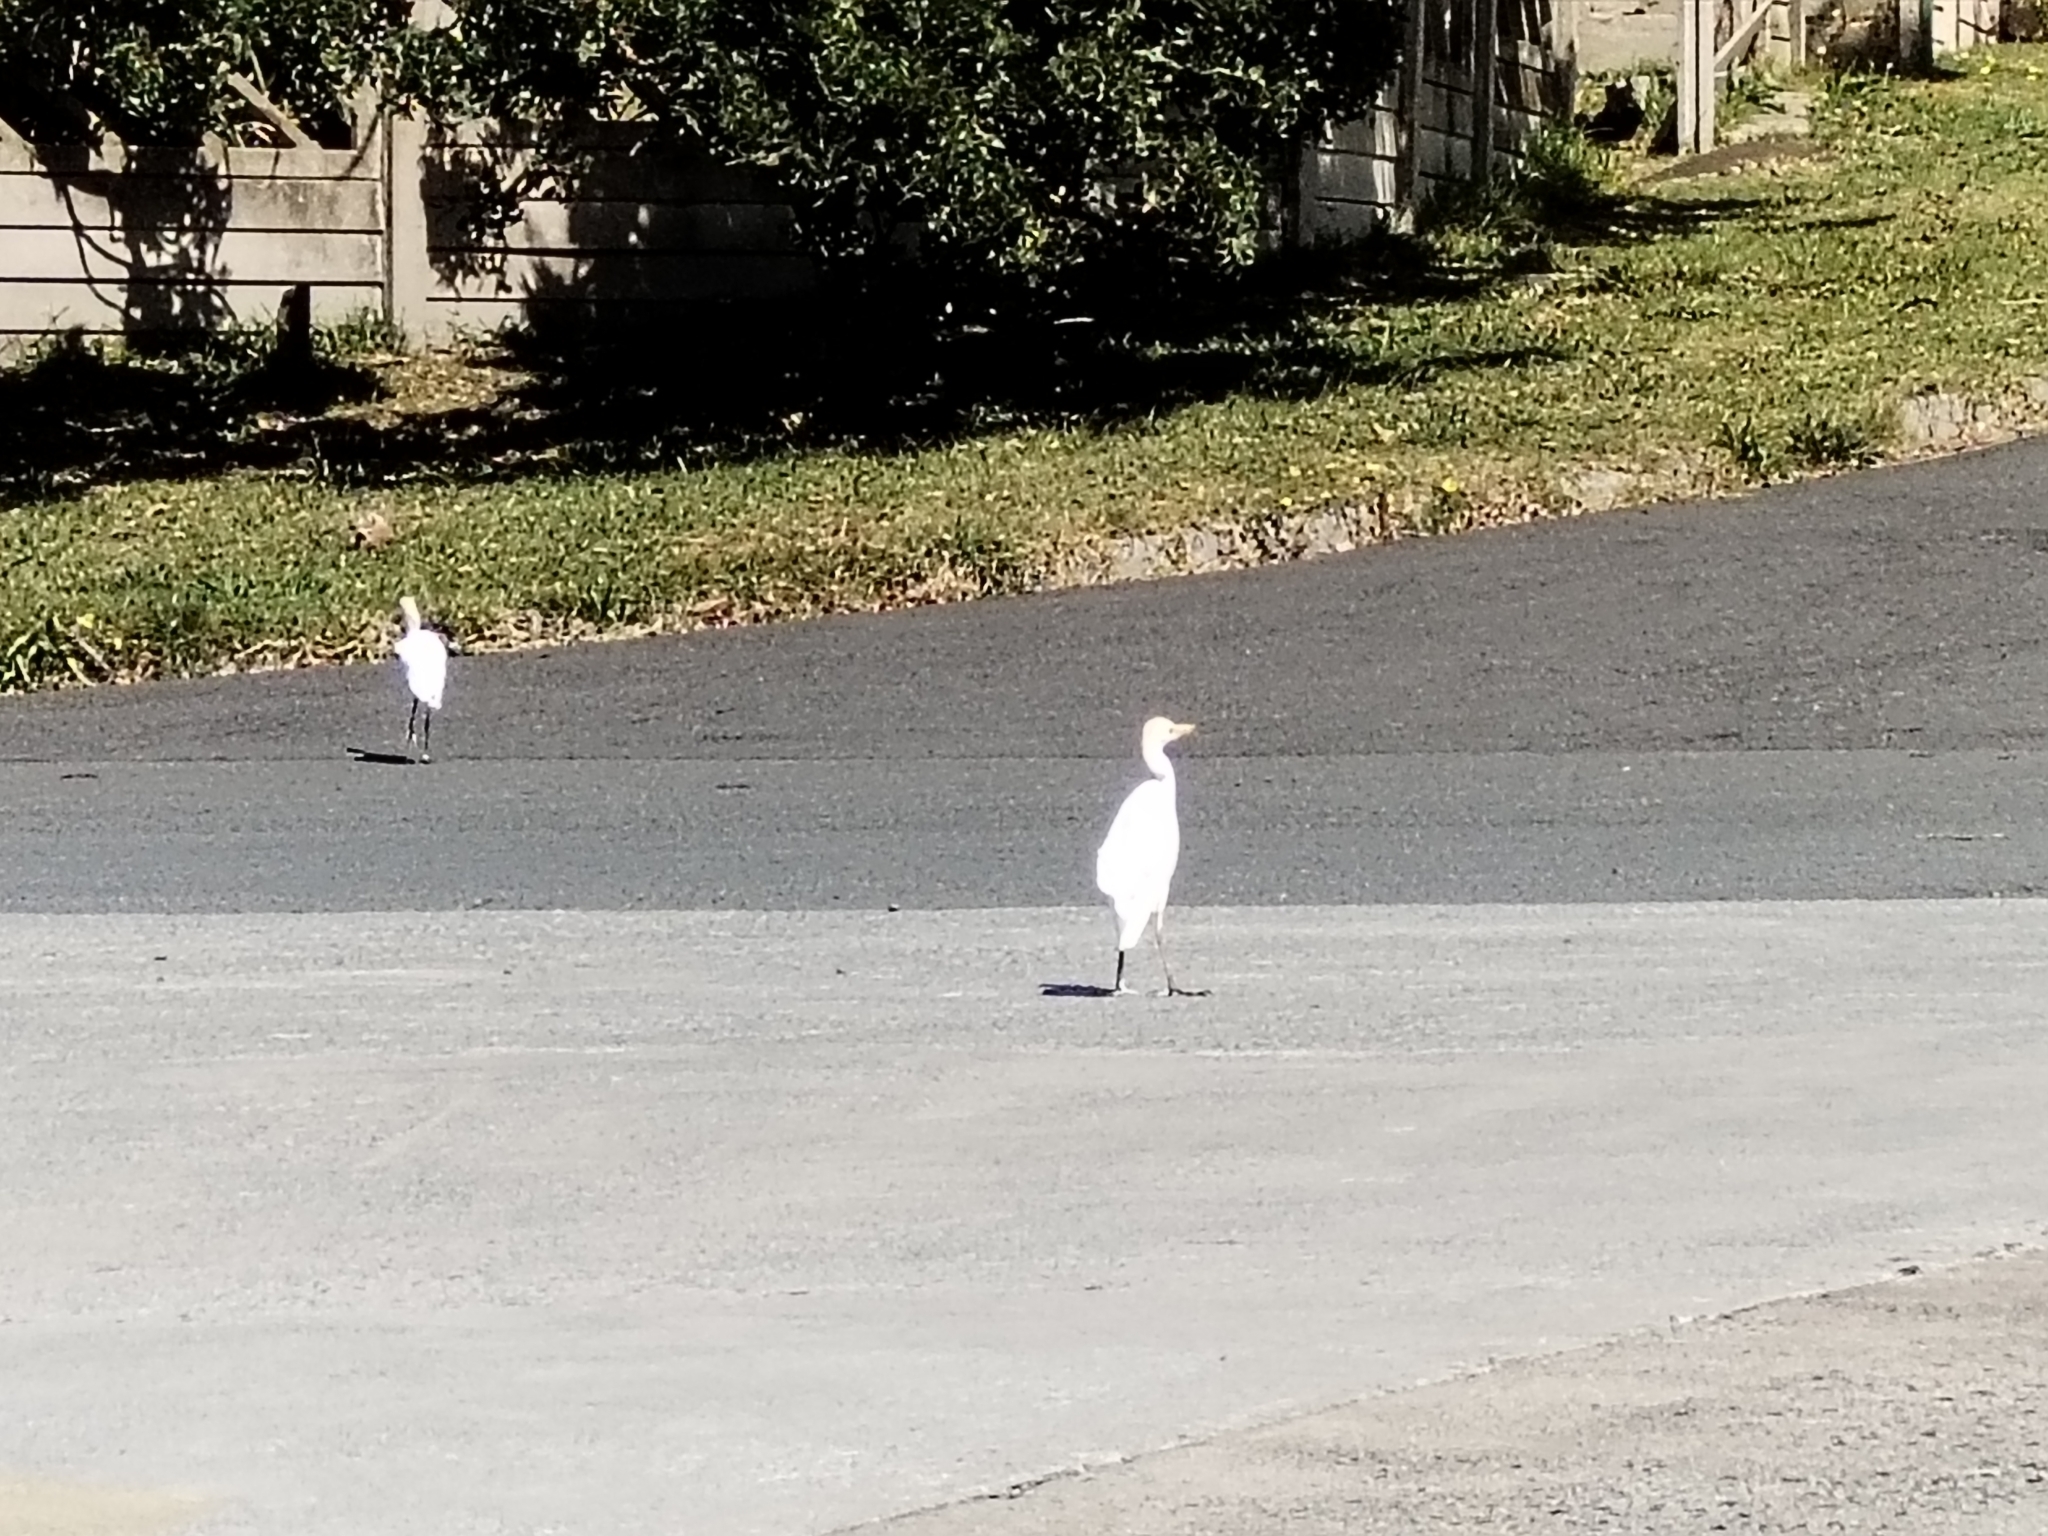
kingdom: Animalia
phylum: Chordata
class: Aves
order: Pelecaniformes
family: Ardeidae
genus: Bubulcus
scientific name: Bubulcus ibis
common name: Cattle egret
